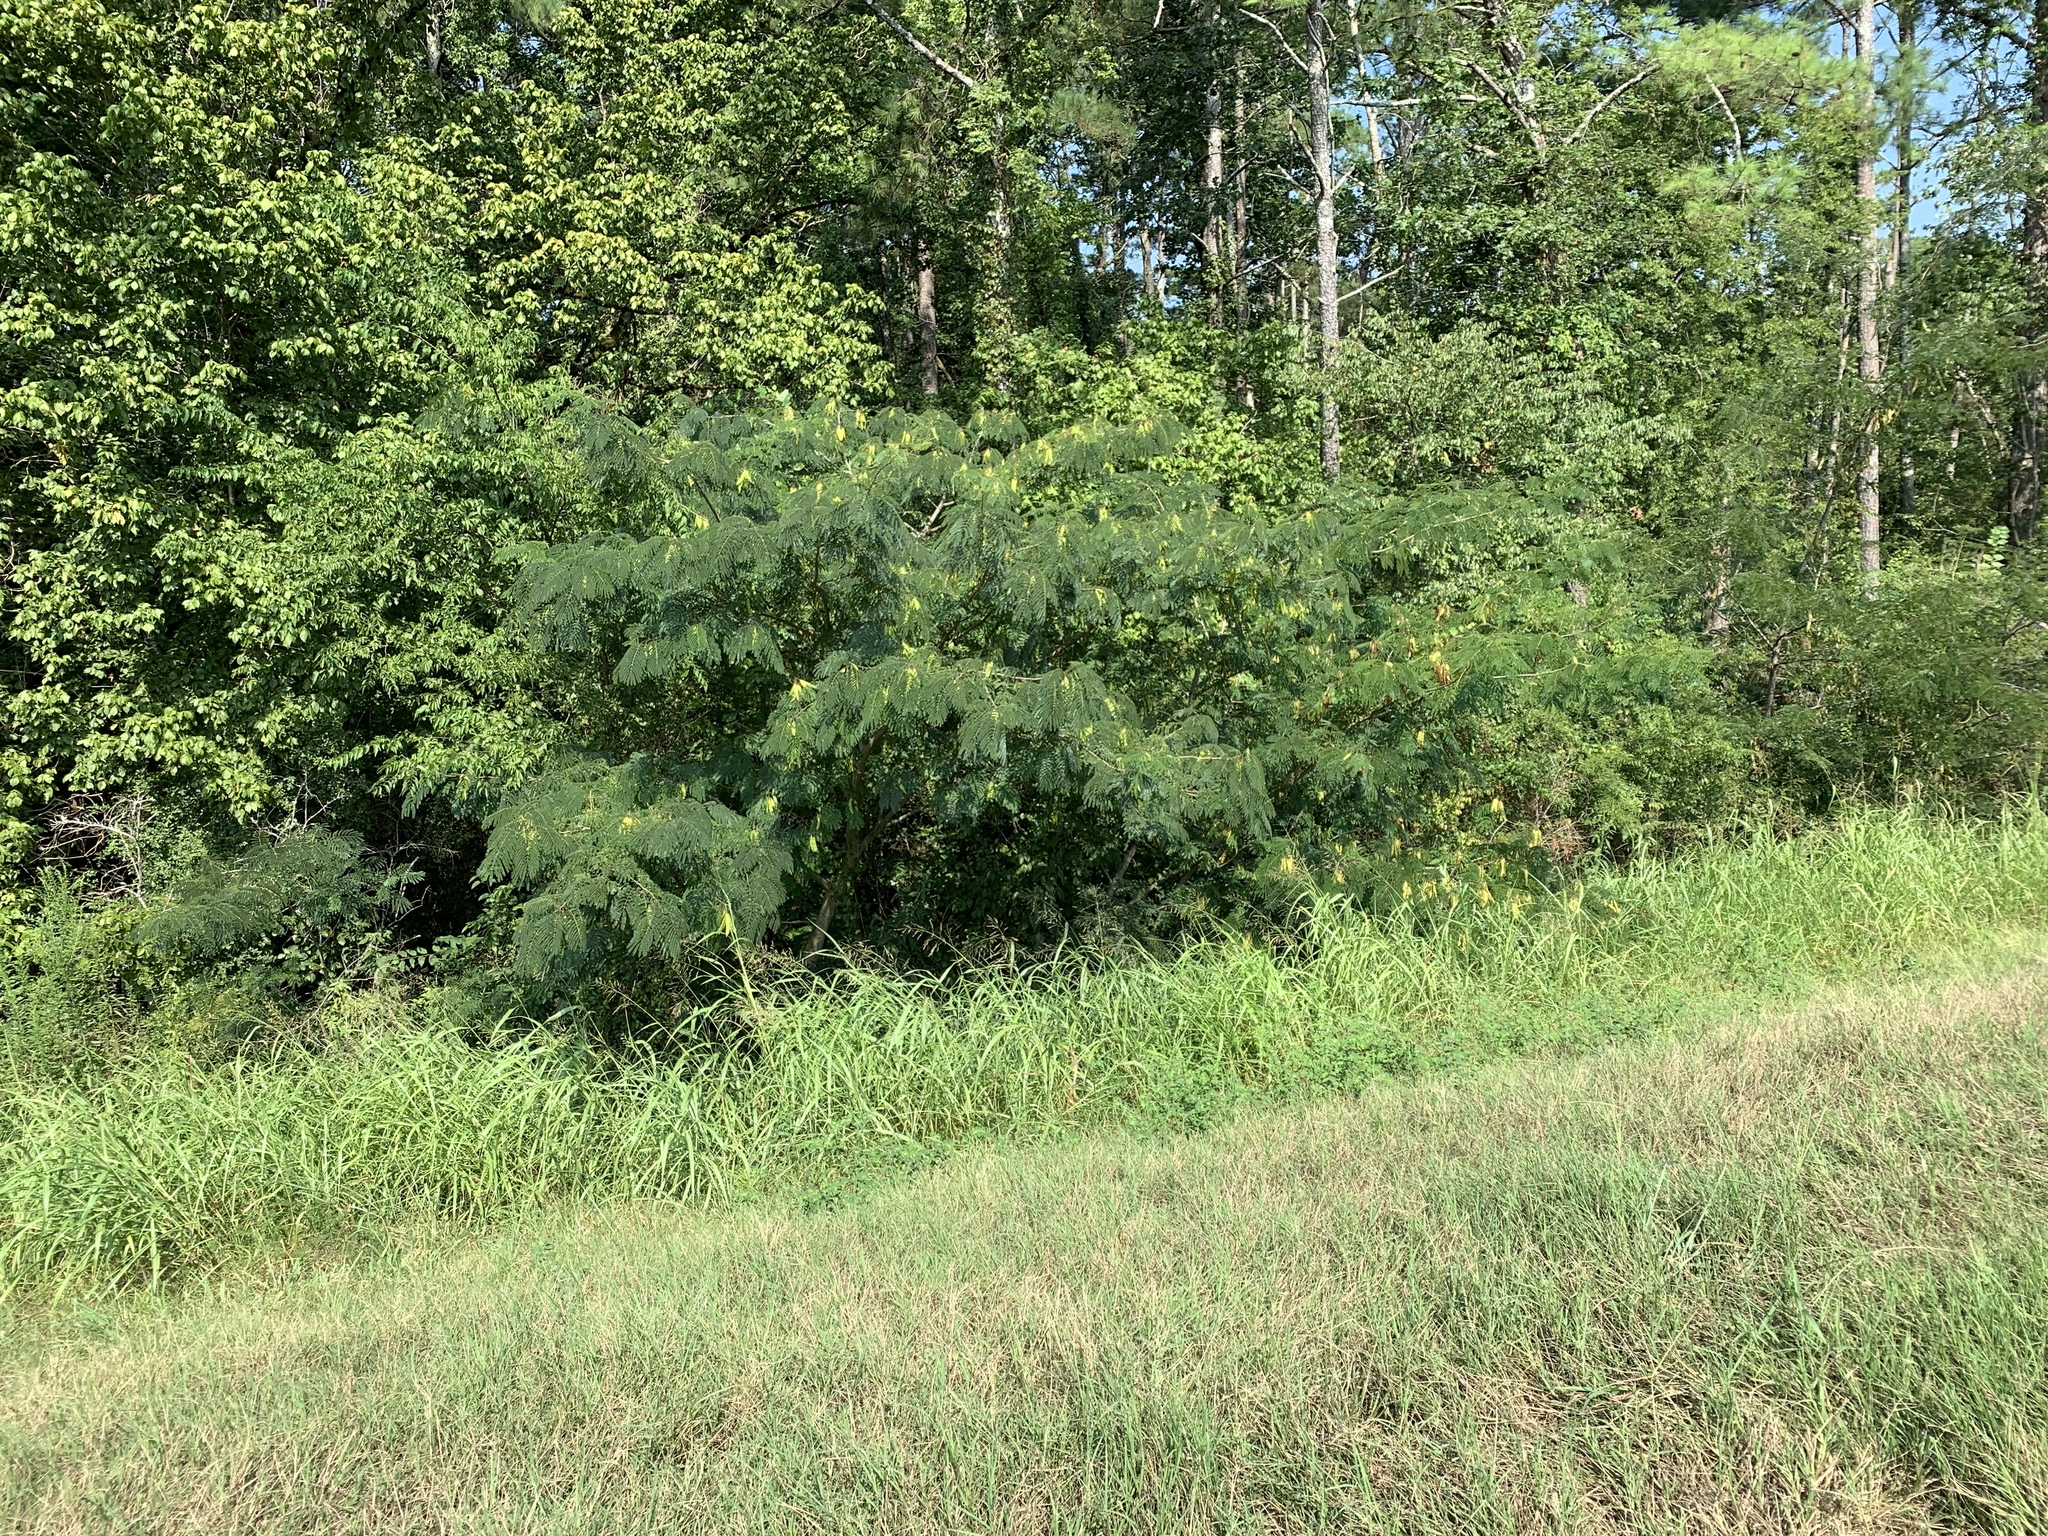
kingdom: Plantae
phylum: Tracheophyta
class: Magnoliopsida
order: Fabales
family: Fabaceae
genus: Albizia
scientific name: Albizia julibrissin
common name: Silktree
